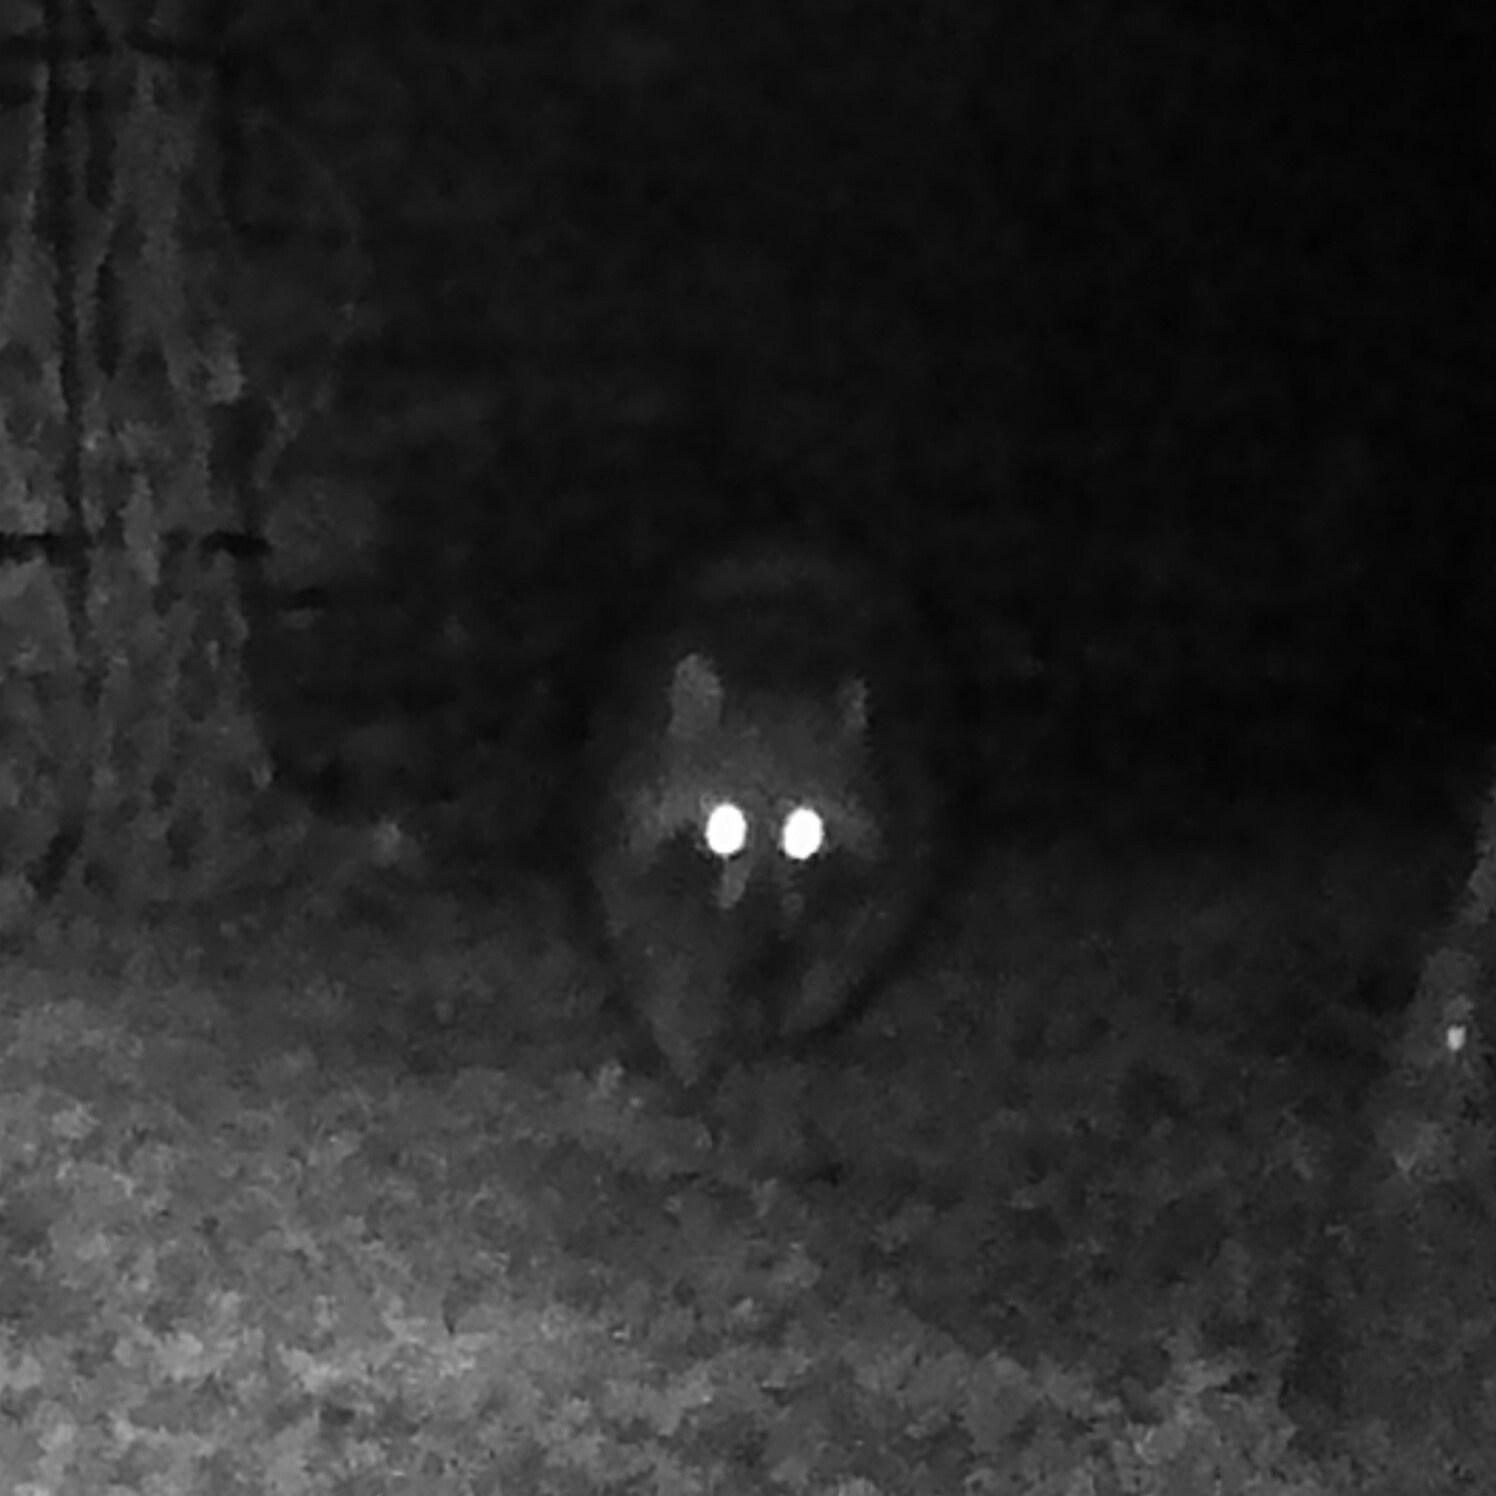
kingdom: Animalia
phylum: Chordata
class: Mammalia
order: Carnivora
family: Procyonidae
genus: Procyon
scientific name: Procyon lotor
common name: Raccoon
